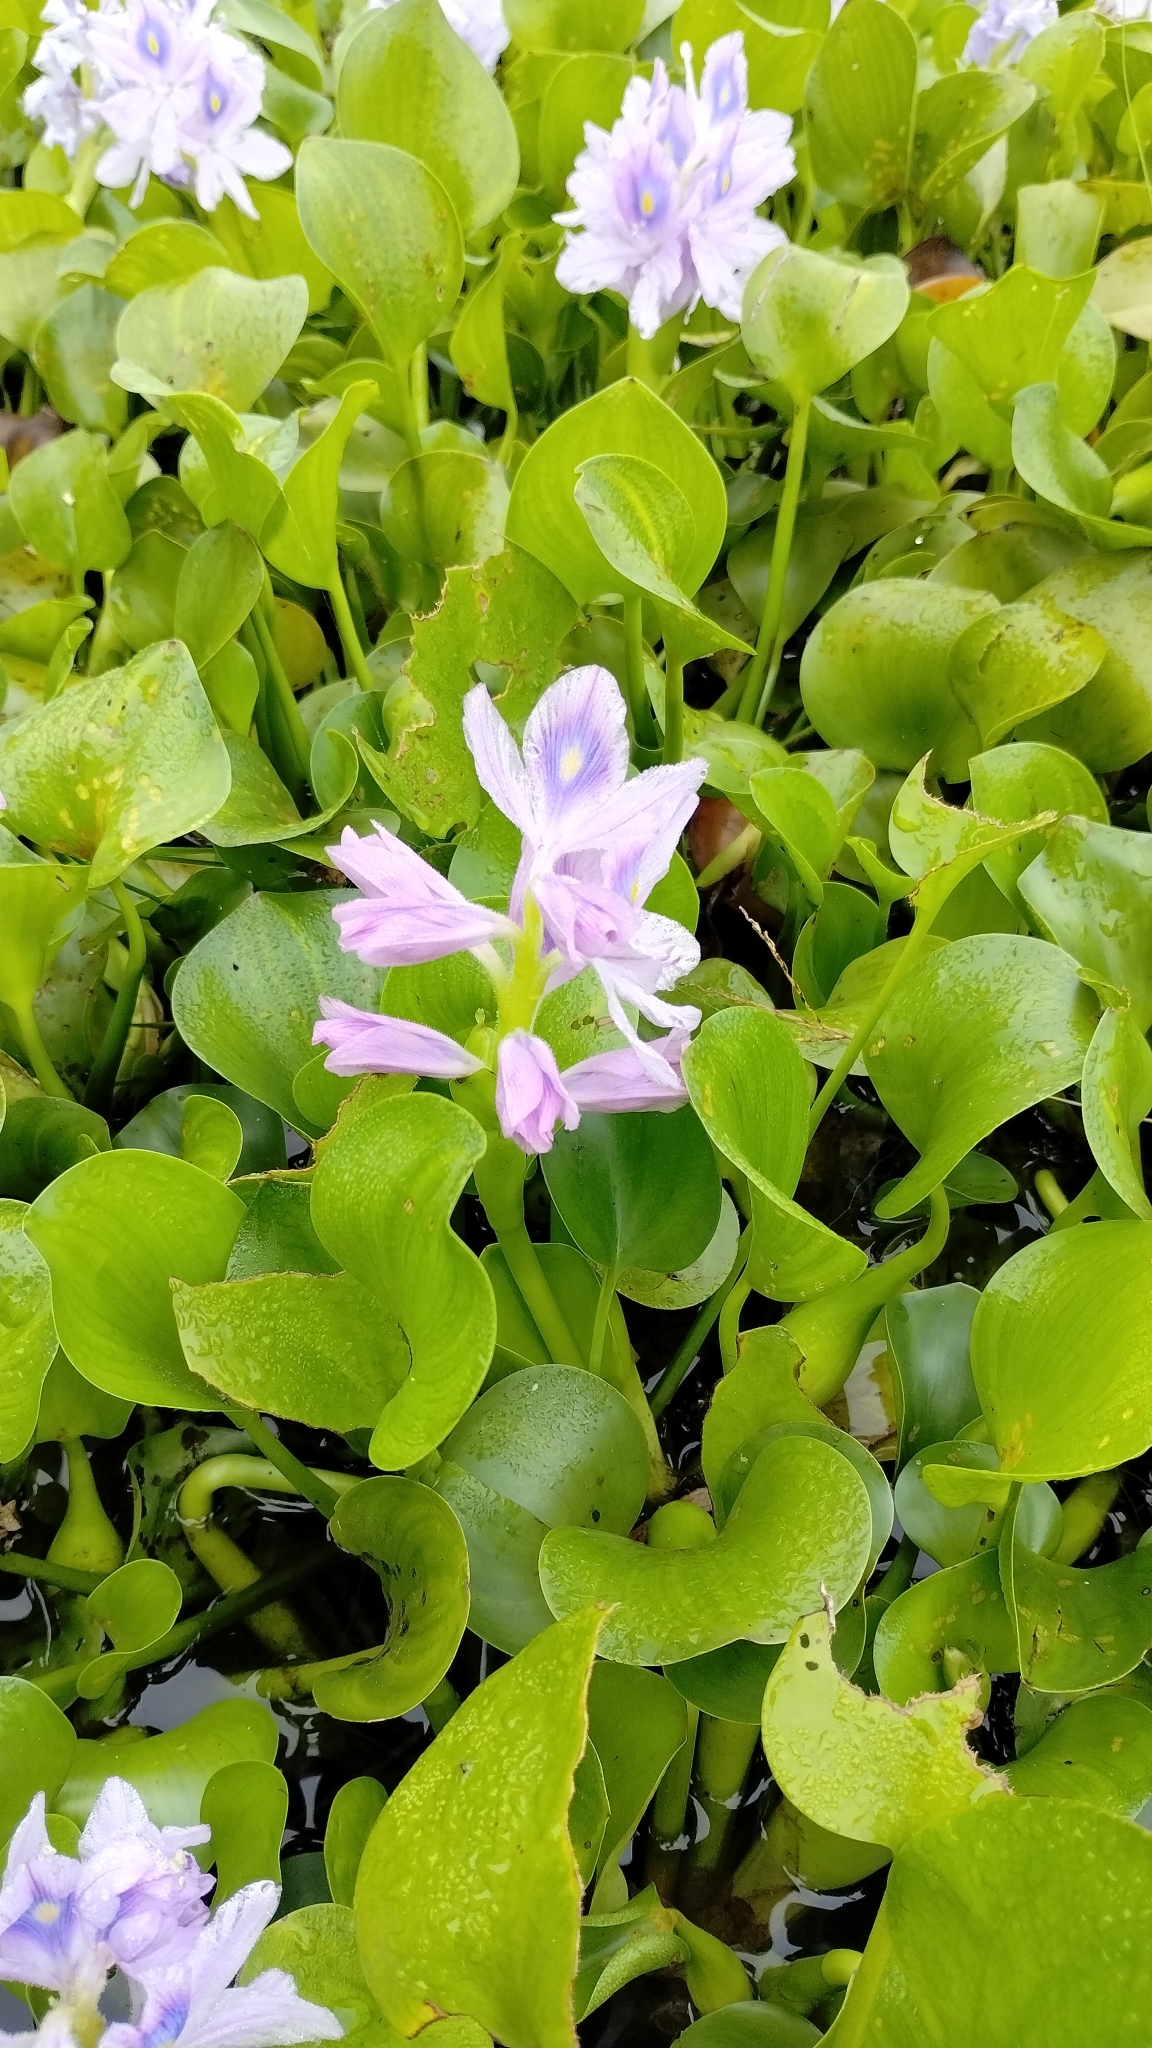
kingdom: Plantae
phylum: Tracheophyta
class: Liliopsida
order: Commelinales
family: Pontederiaceae
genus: Pontederia
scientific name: Pontederia crassipes
